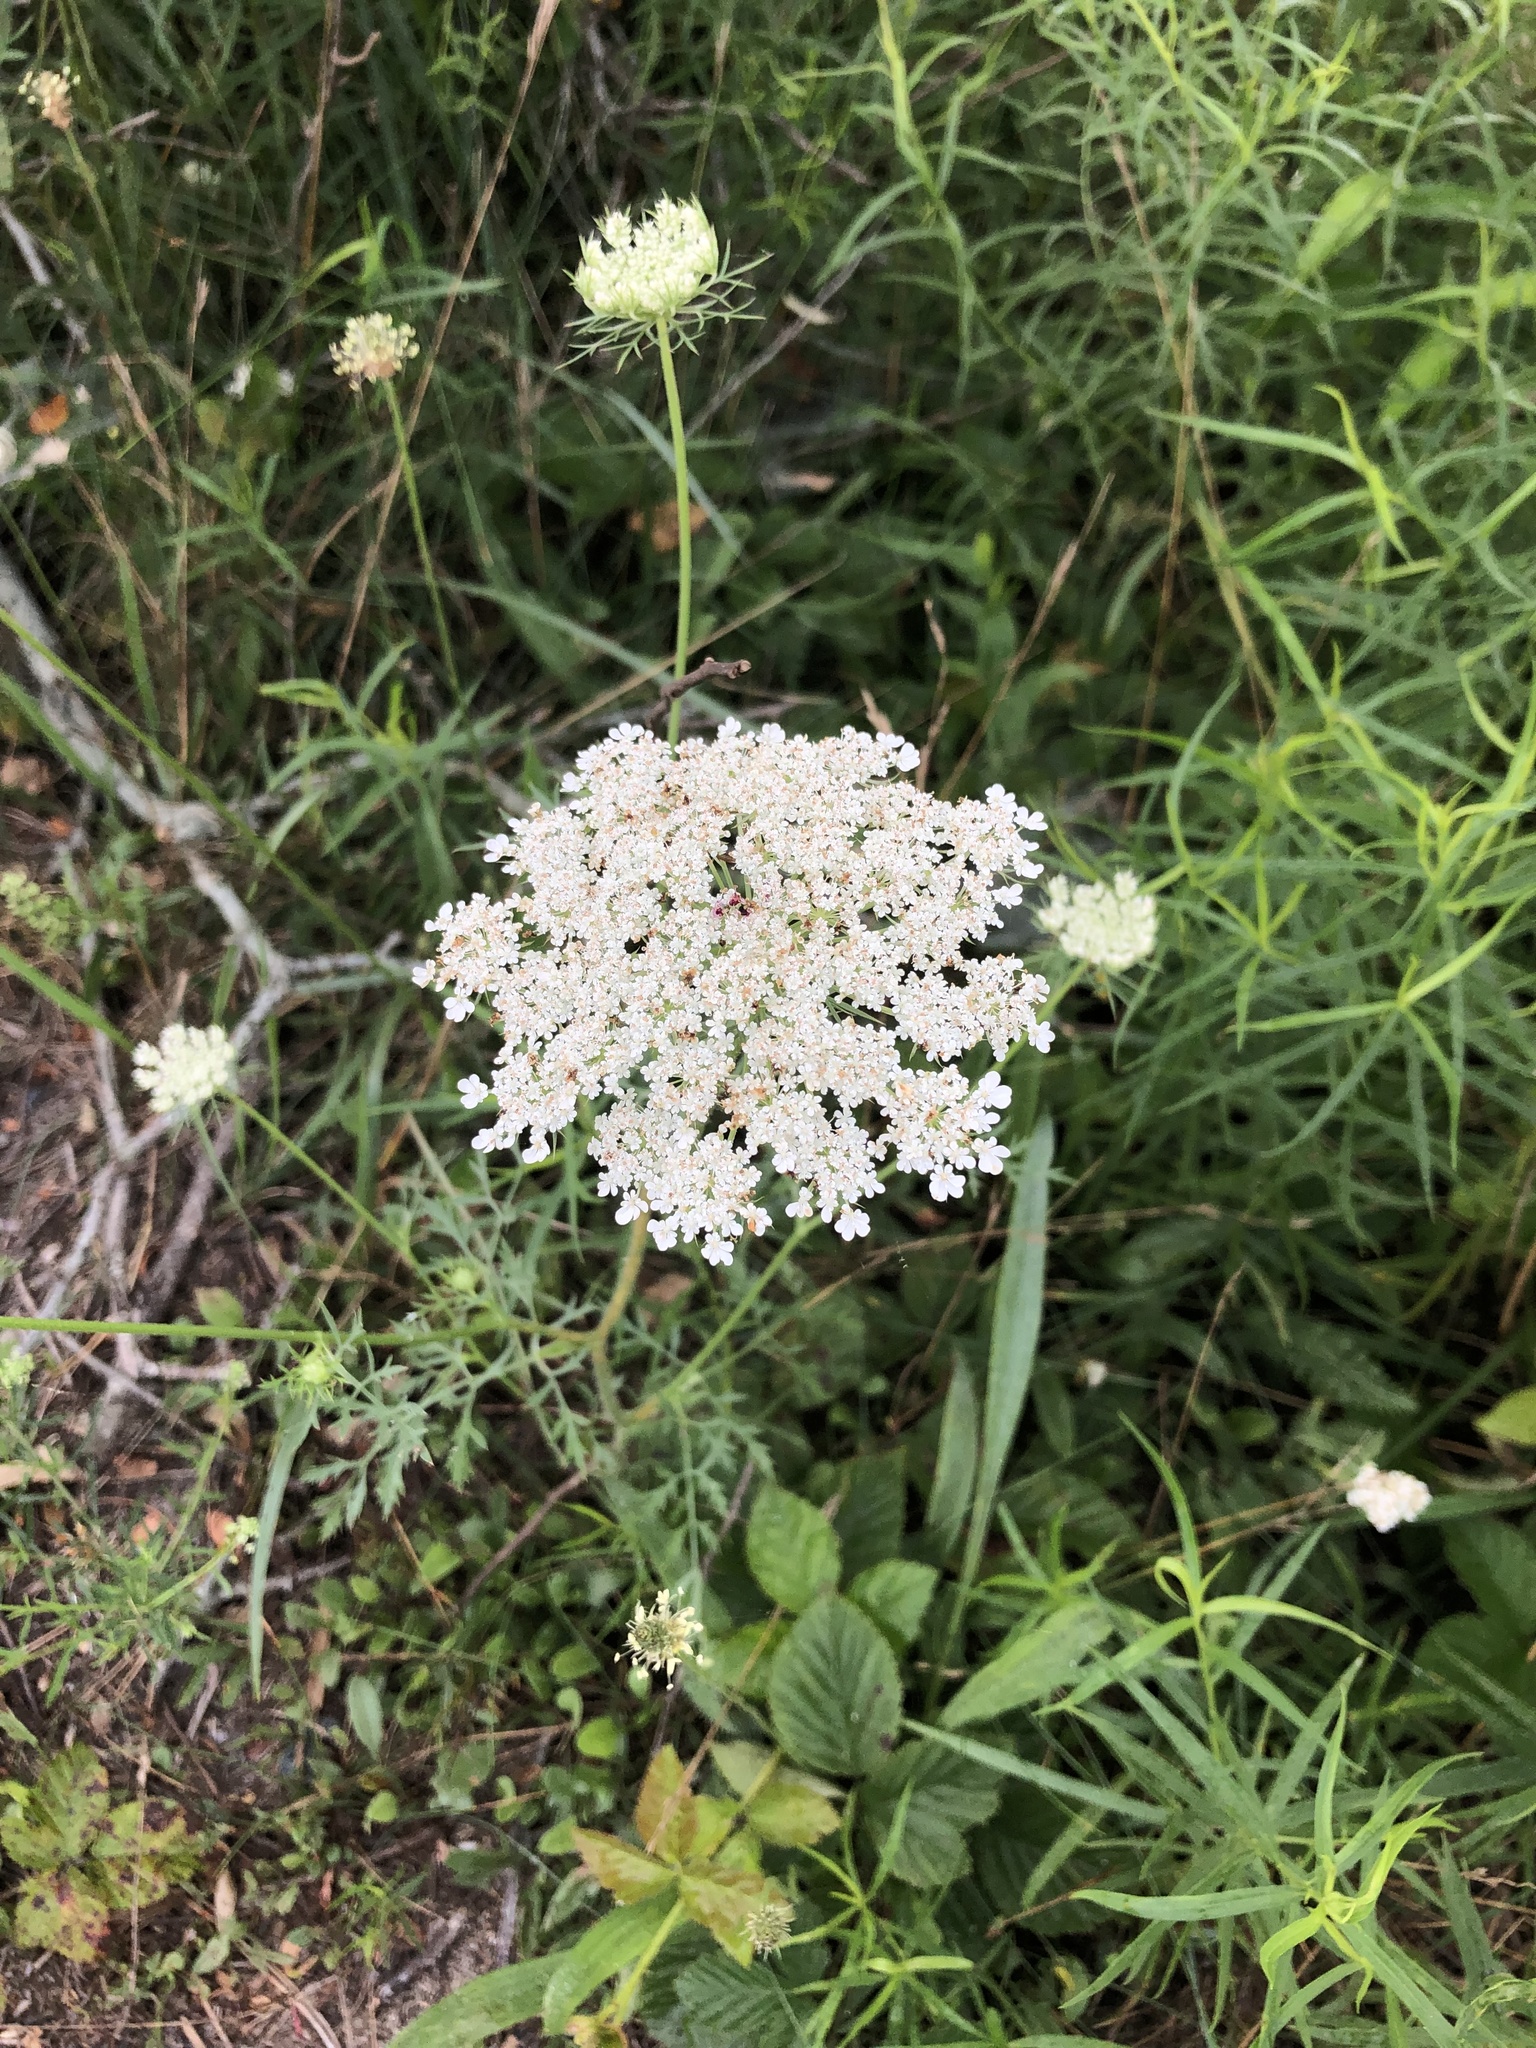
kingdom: Plantae
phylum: Tracheophyta
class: Magnoliopsida
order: Apiales
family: Apiaceae
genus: Daucus
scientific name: Daucus carota
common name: Wild carrot
